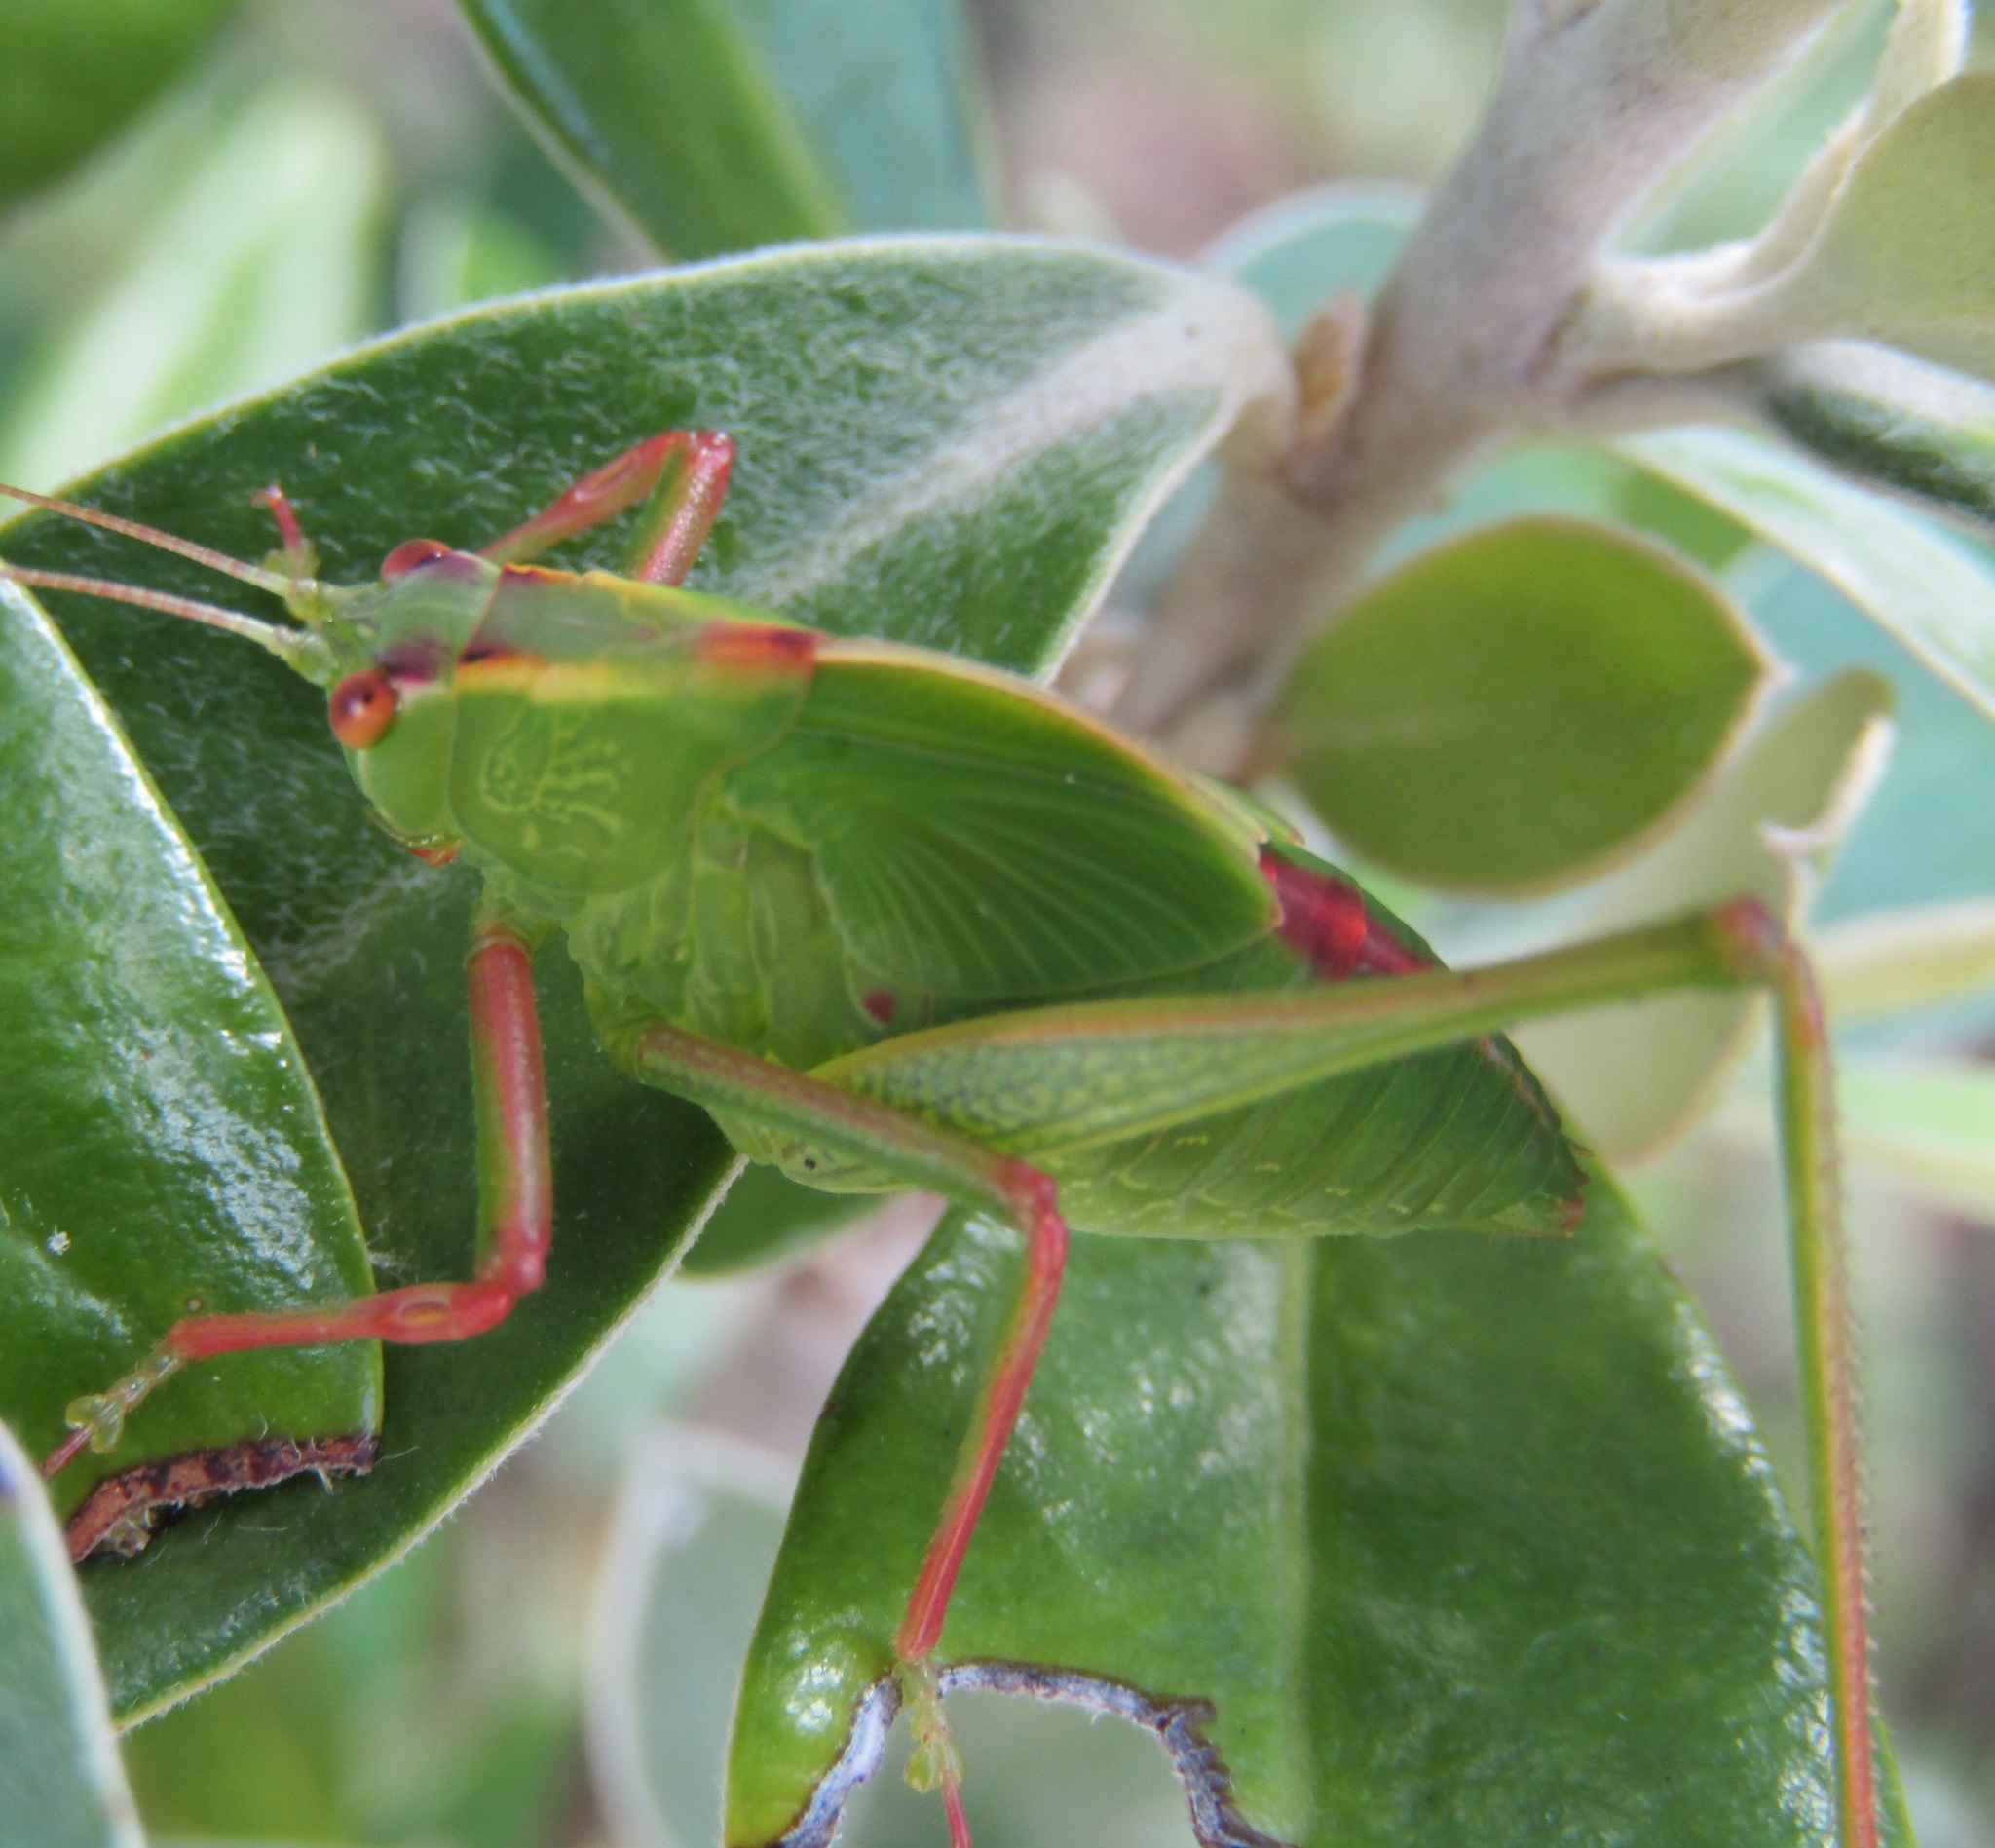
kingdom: Animalia
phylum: Arthropoda
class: Insecta
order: Orthoptera
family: Tettigoniidae
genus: Caedicia
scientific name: Caedicia simplex
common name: Common garden katydid
